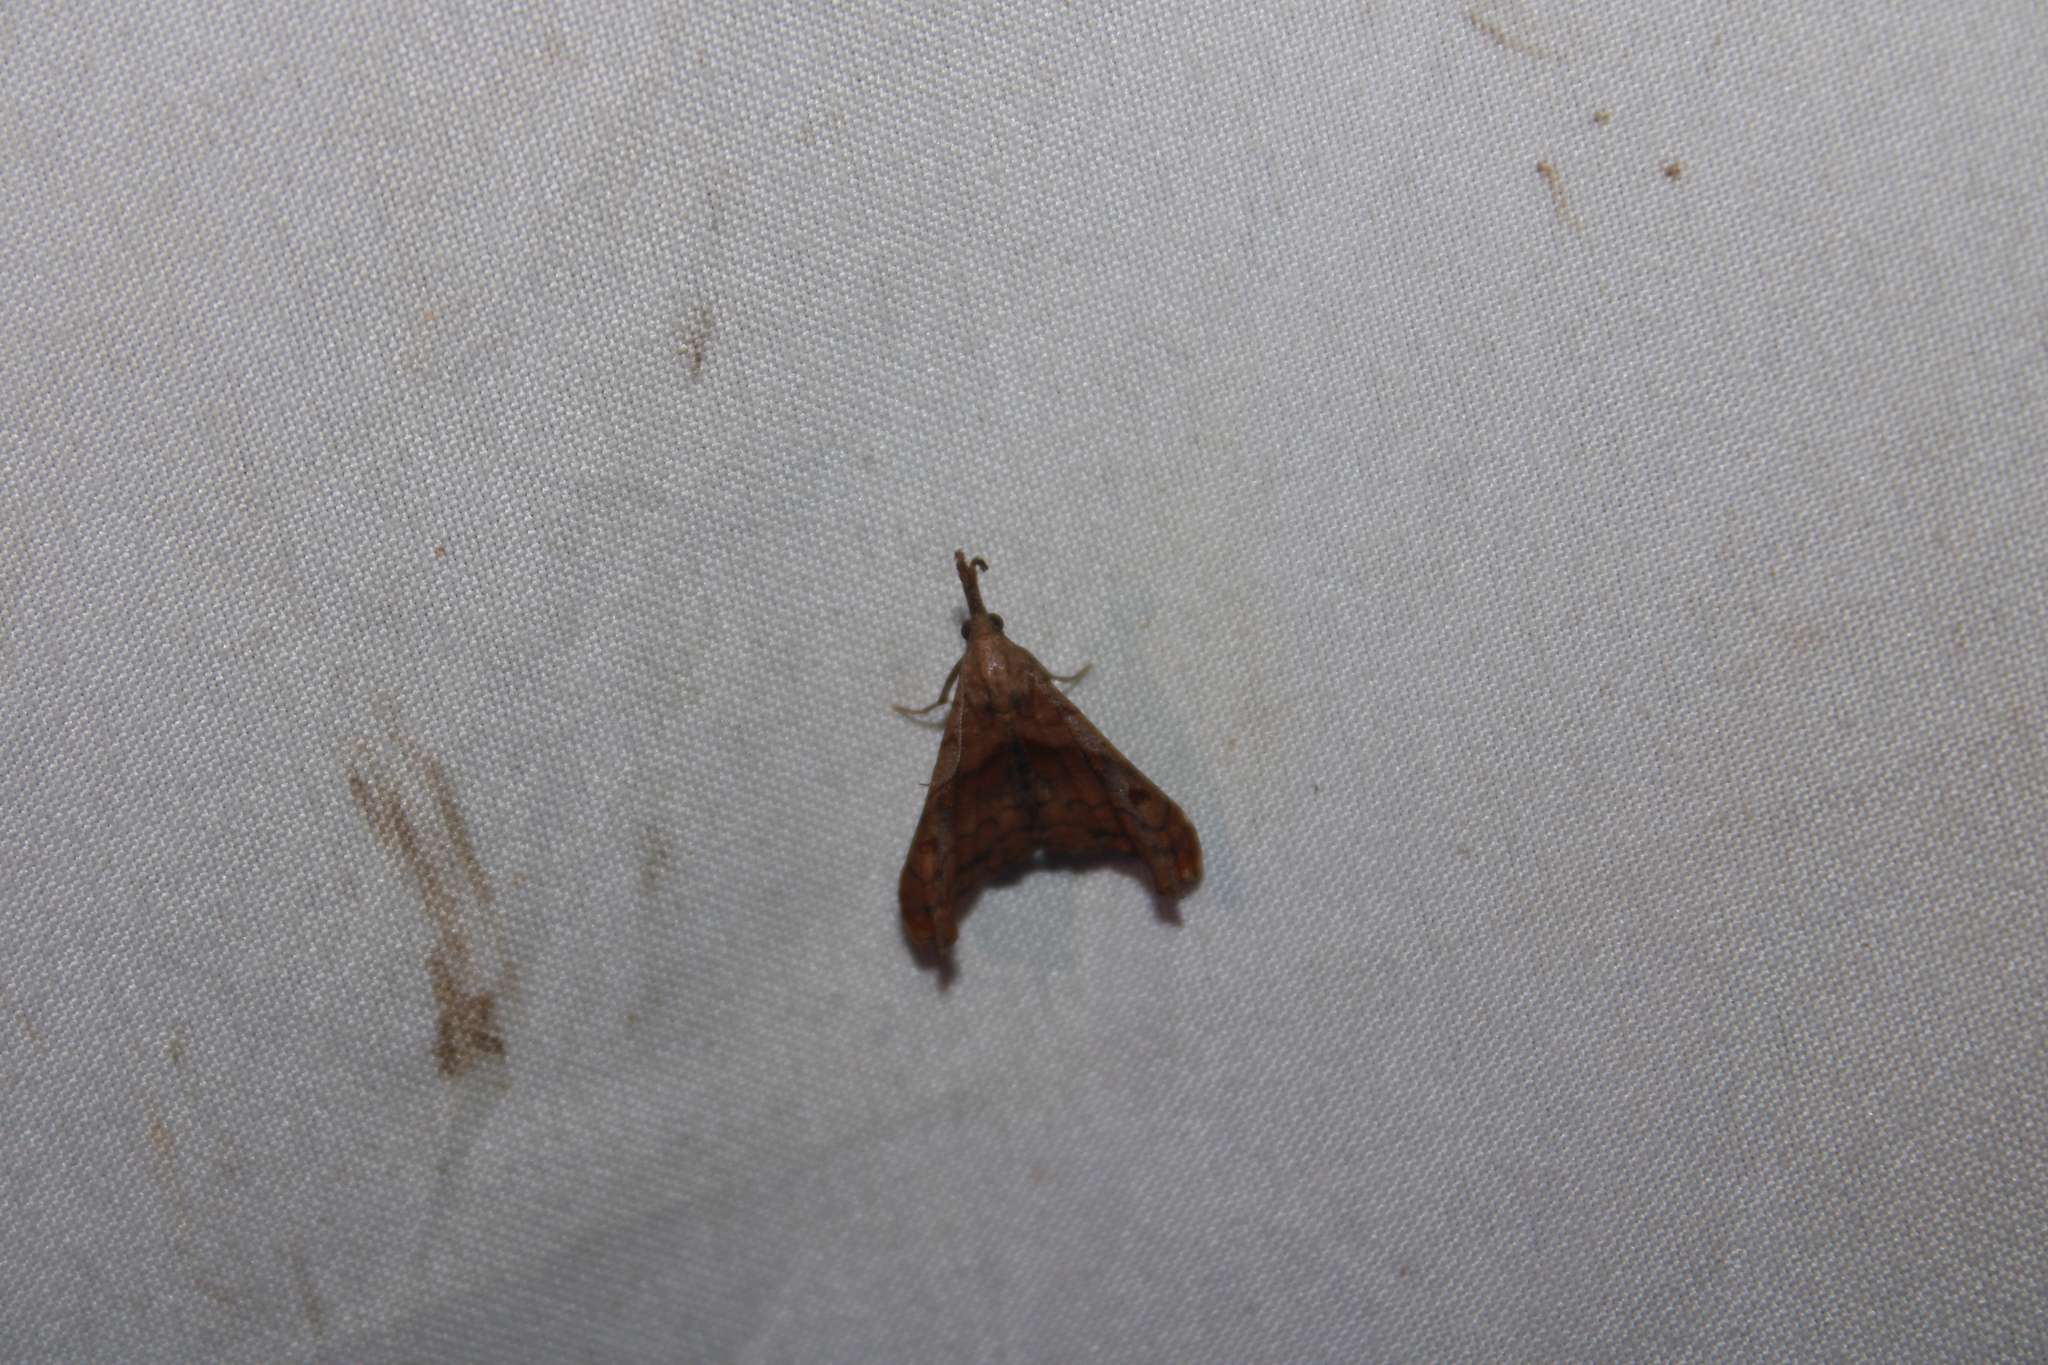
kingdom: Animalia
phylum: Arthropoda
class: Insecta
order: Lepidoptera
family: Erebidae
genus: Palthis
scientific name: Palthis angulalis
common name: Dark-spotted palthis moth
